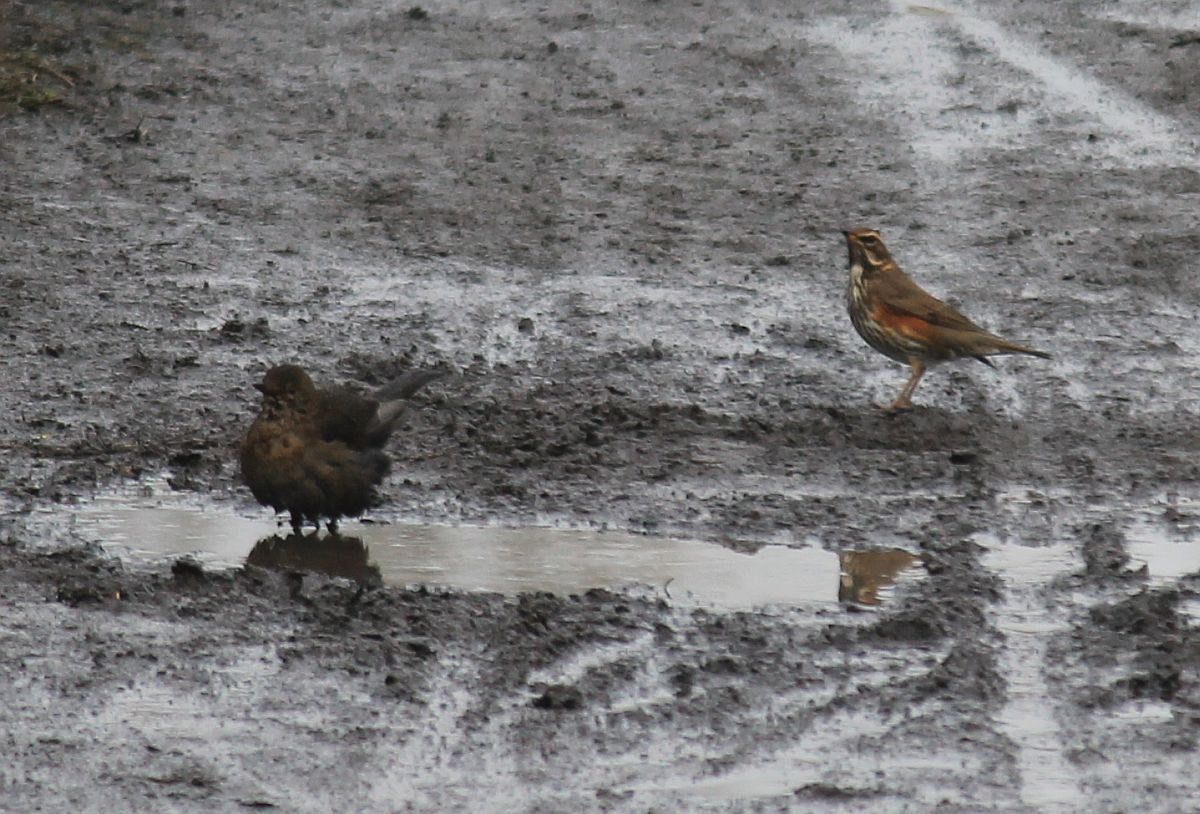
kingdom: Animalia
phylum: Chordata
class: Aves
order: Passeriformes
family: Turdidae
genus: Turdus
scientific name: Turdus iliacus
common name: Redwing
